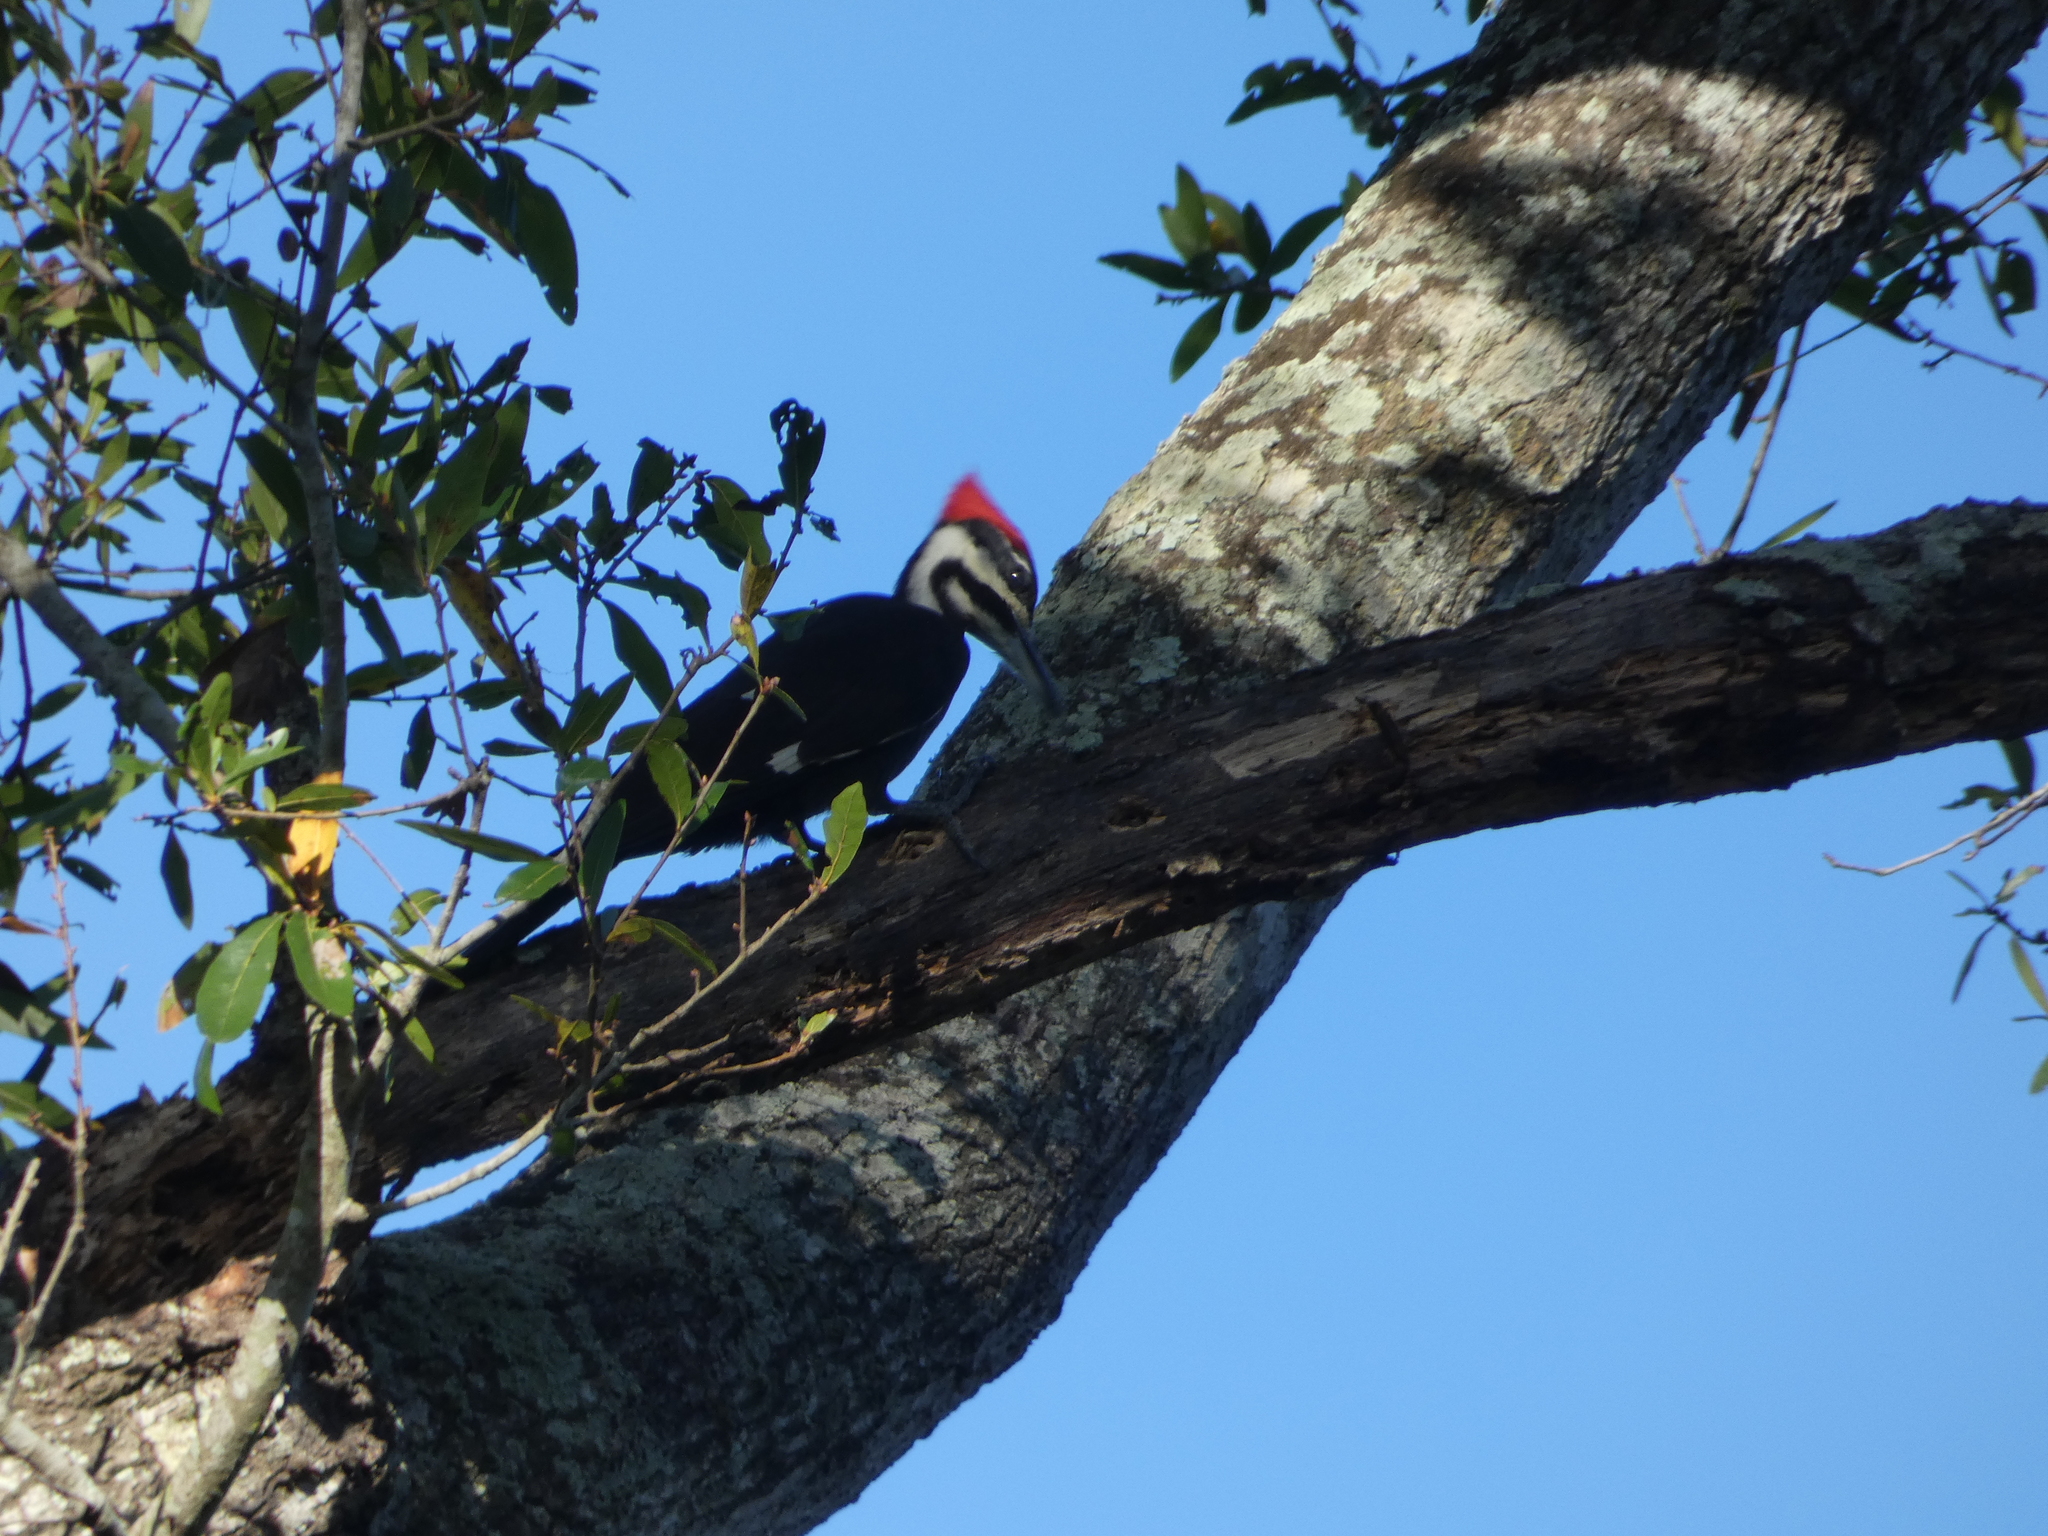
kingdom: Animalia
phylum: Chordata
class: Aves
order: Piciformes
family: Picidae
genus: Dryocopus
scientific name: Dryocopus pileatus
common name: Pileated woodpecker
